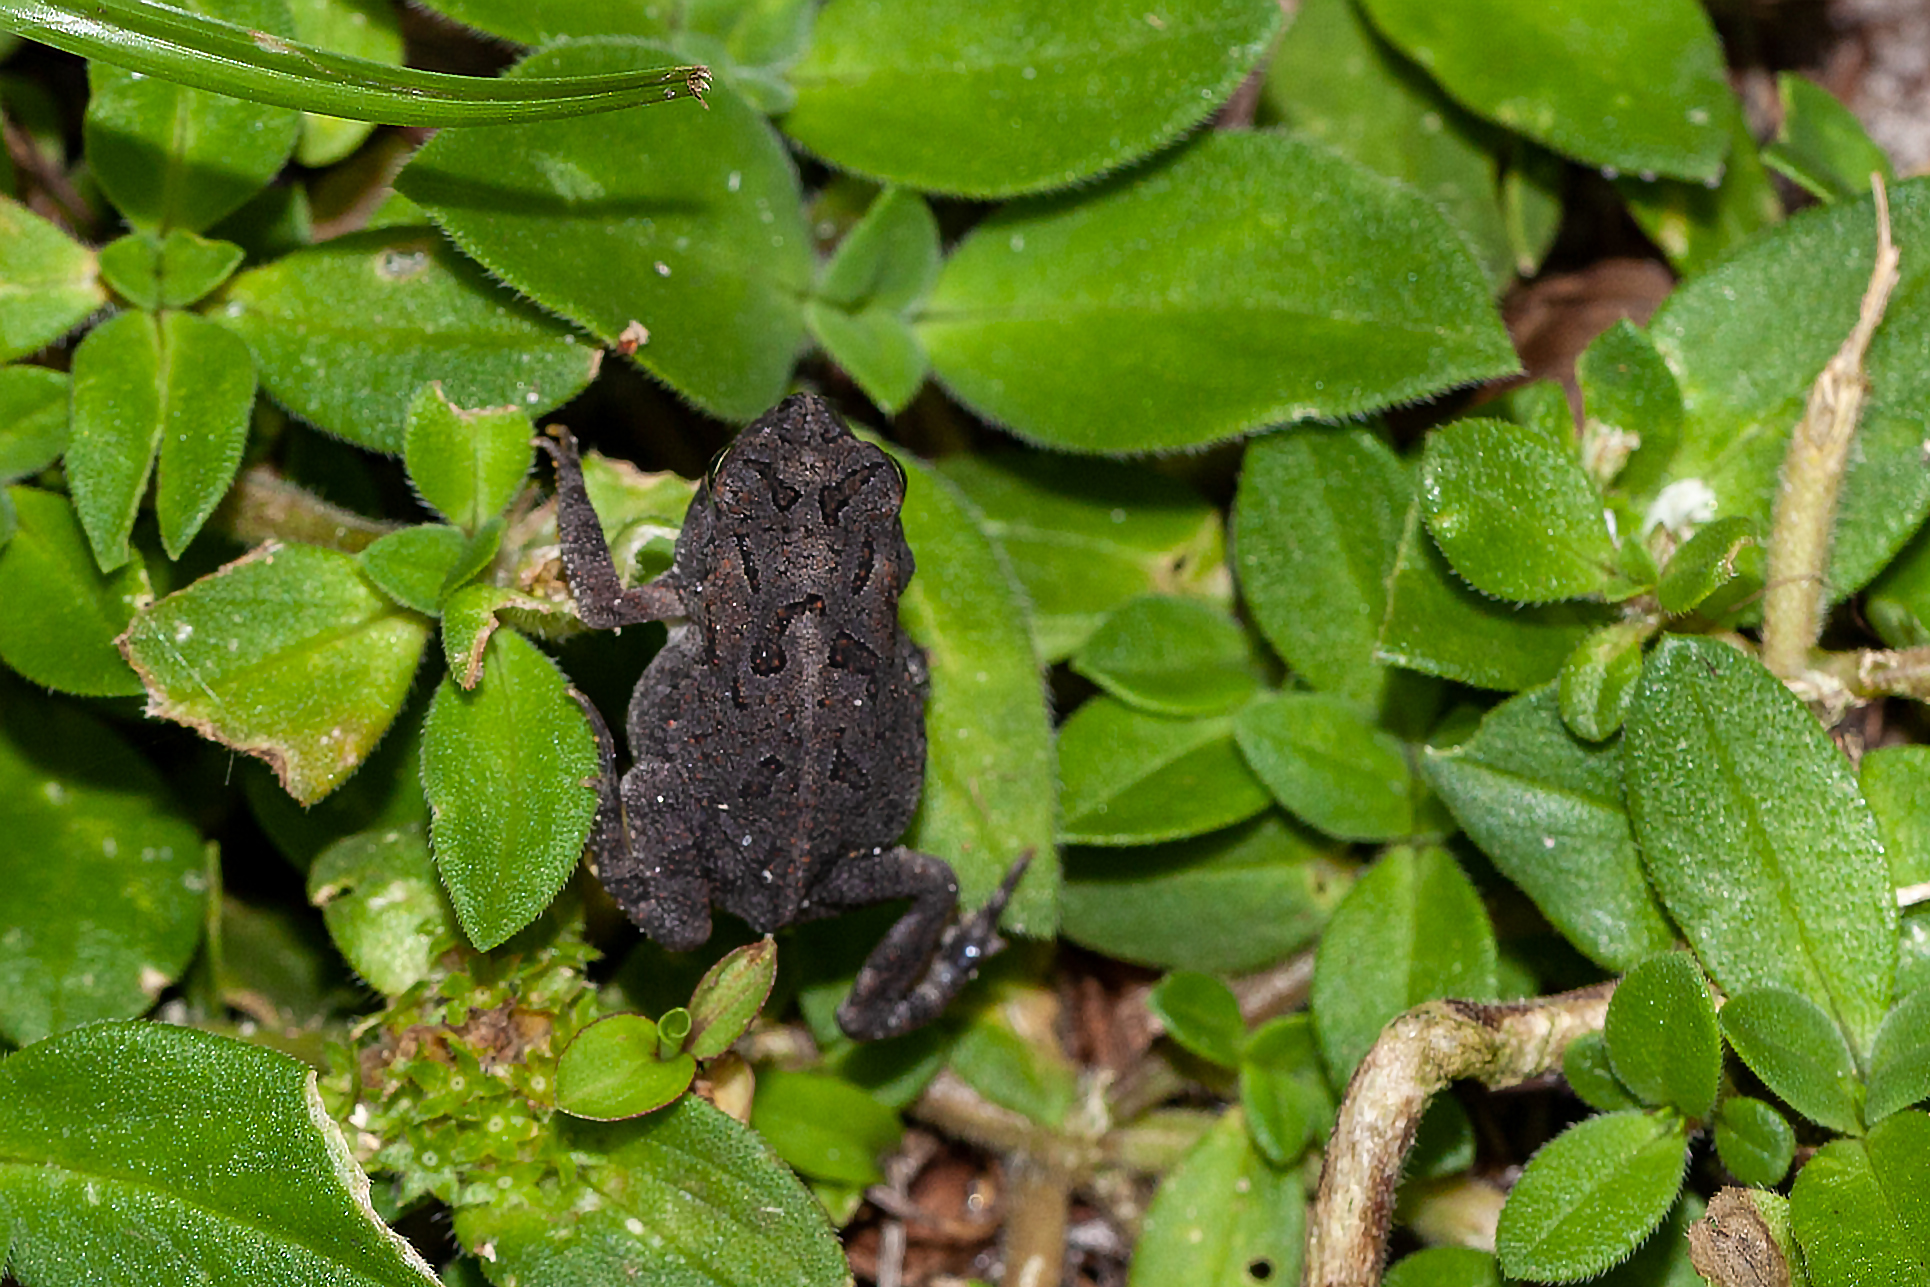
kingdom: Animalia
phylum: Chordata
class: Amphibia
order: Anura
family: Bufonidae
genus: Anaxyrus
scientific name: Anaxyrus terrestris
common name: Southern toad
